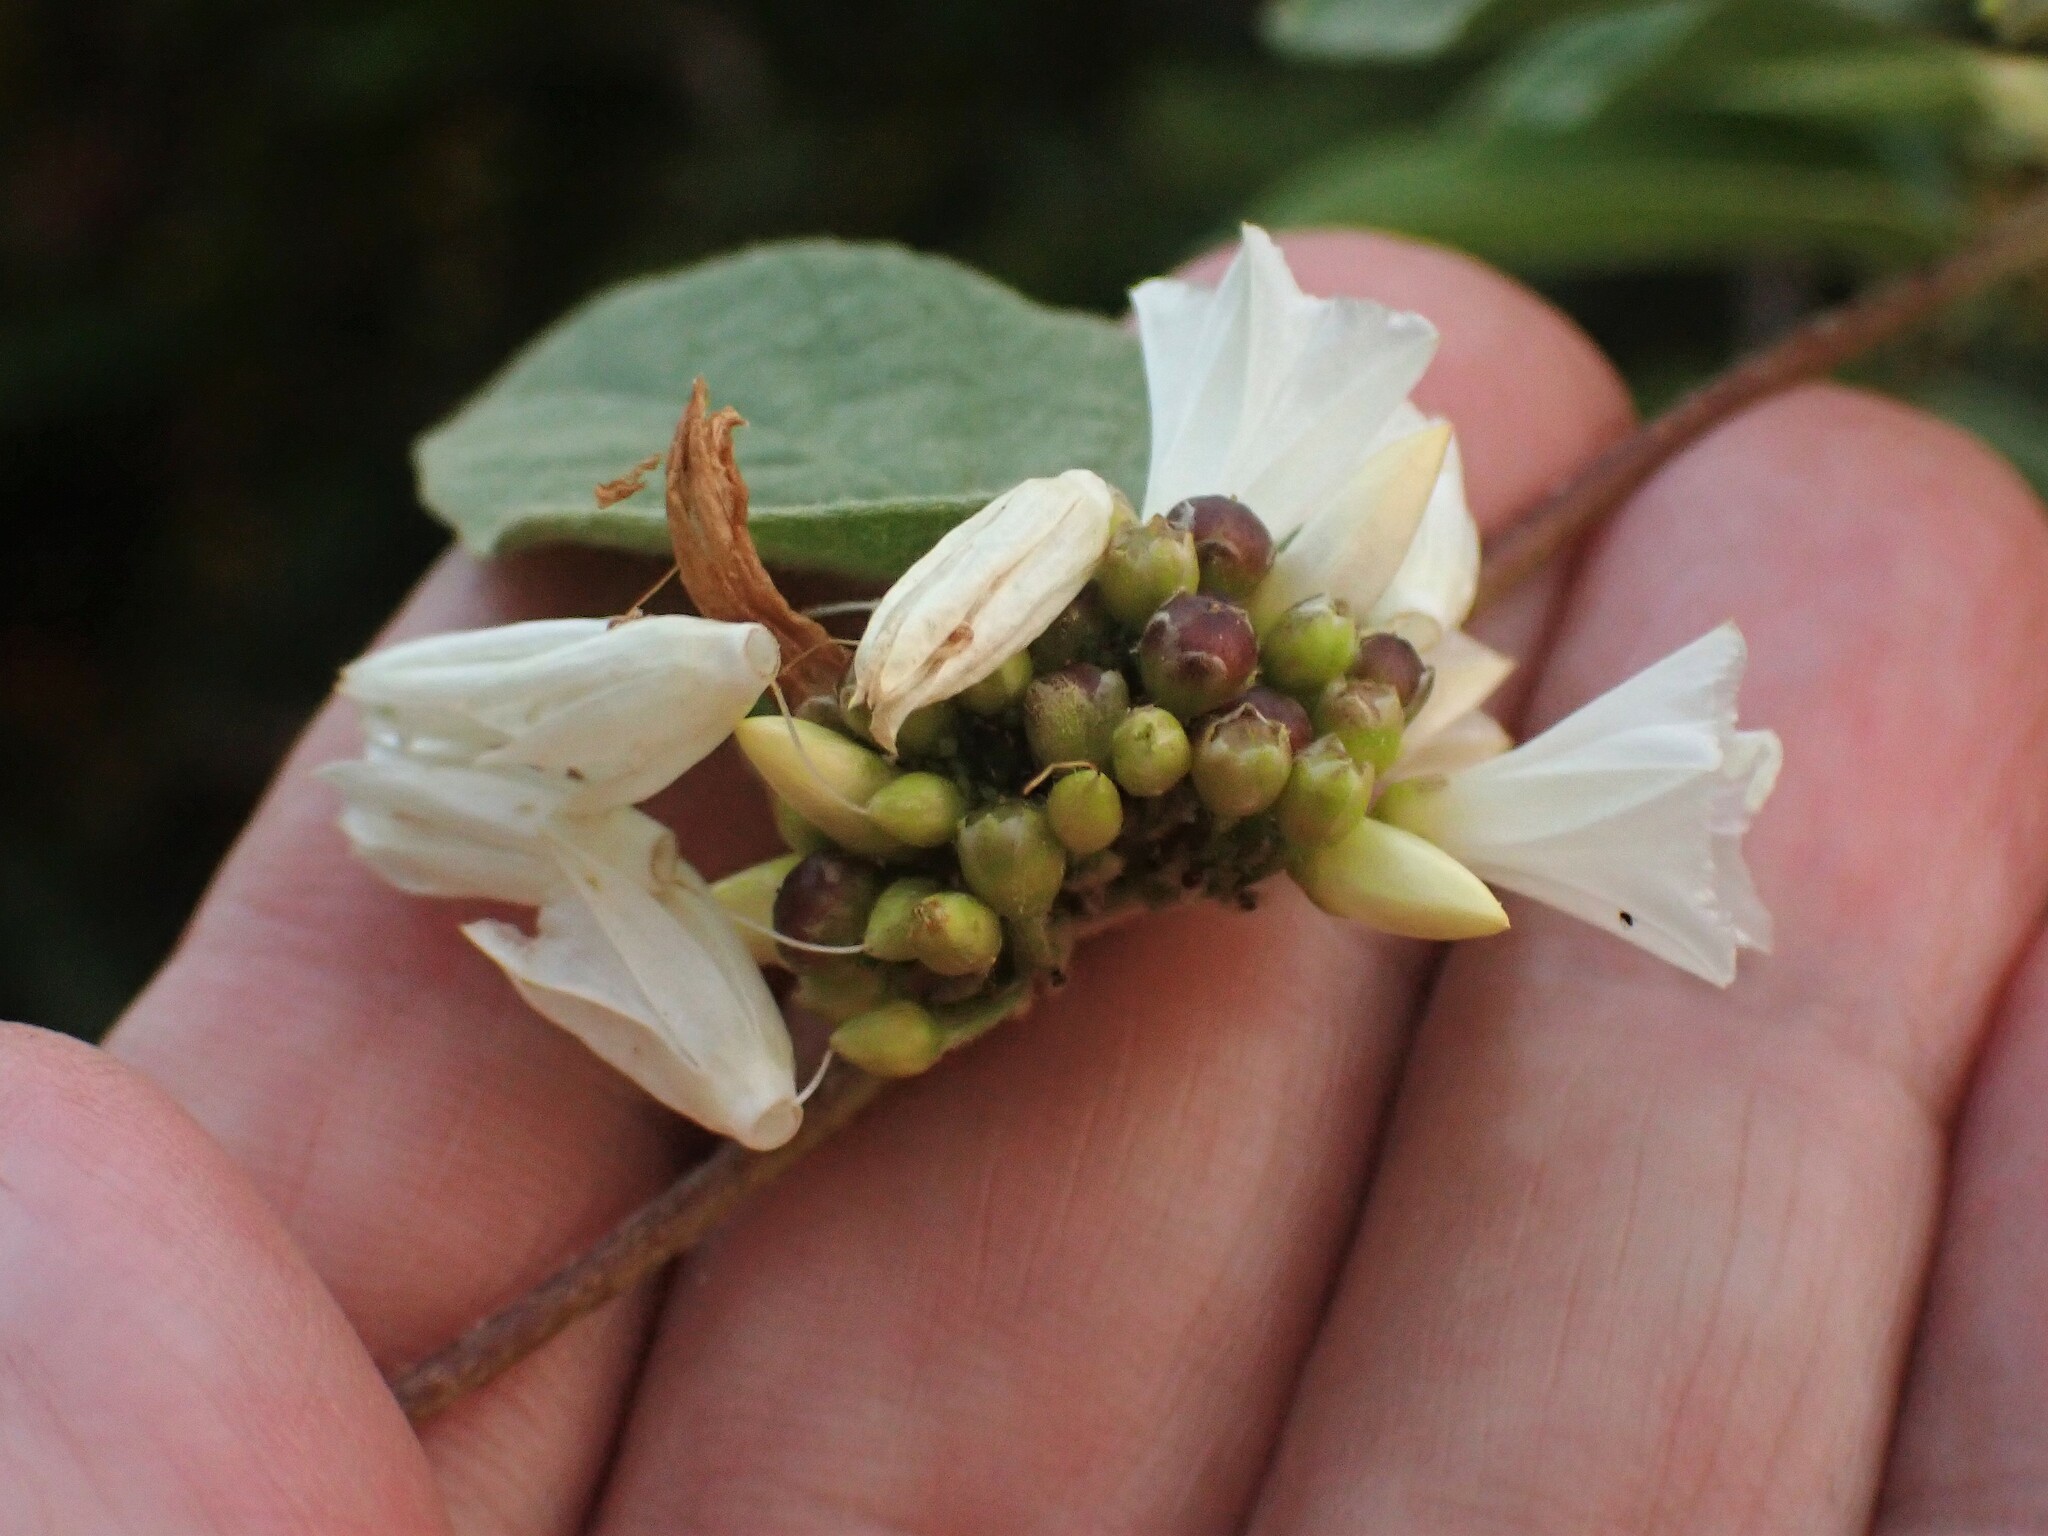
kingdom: Plantae
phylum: Tracheophyta
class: Magnoliopsida
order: Solanales
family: Convolvulaceae
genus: Jacquemontia
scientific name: Jacquemontia nodiflora
